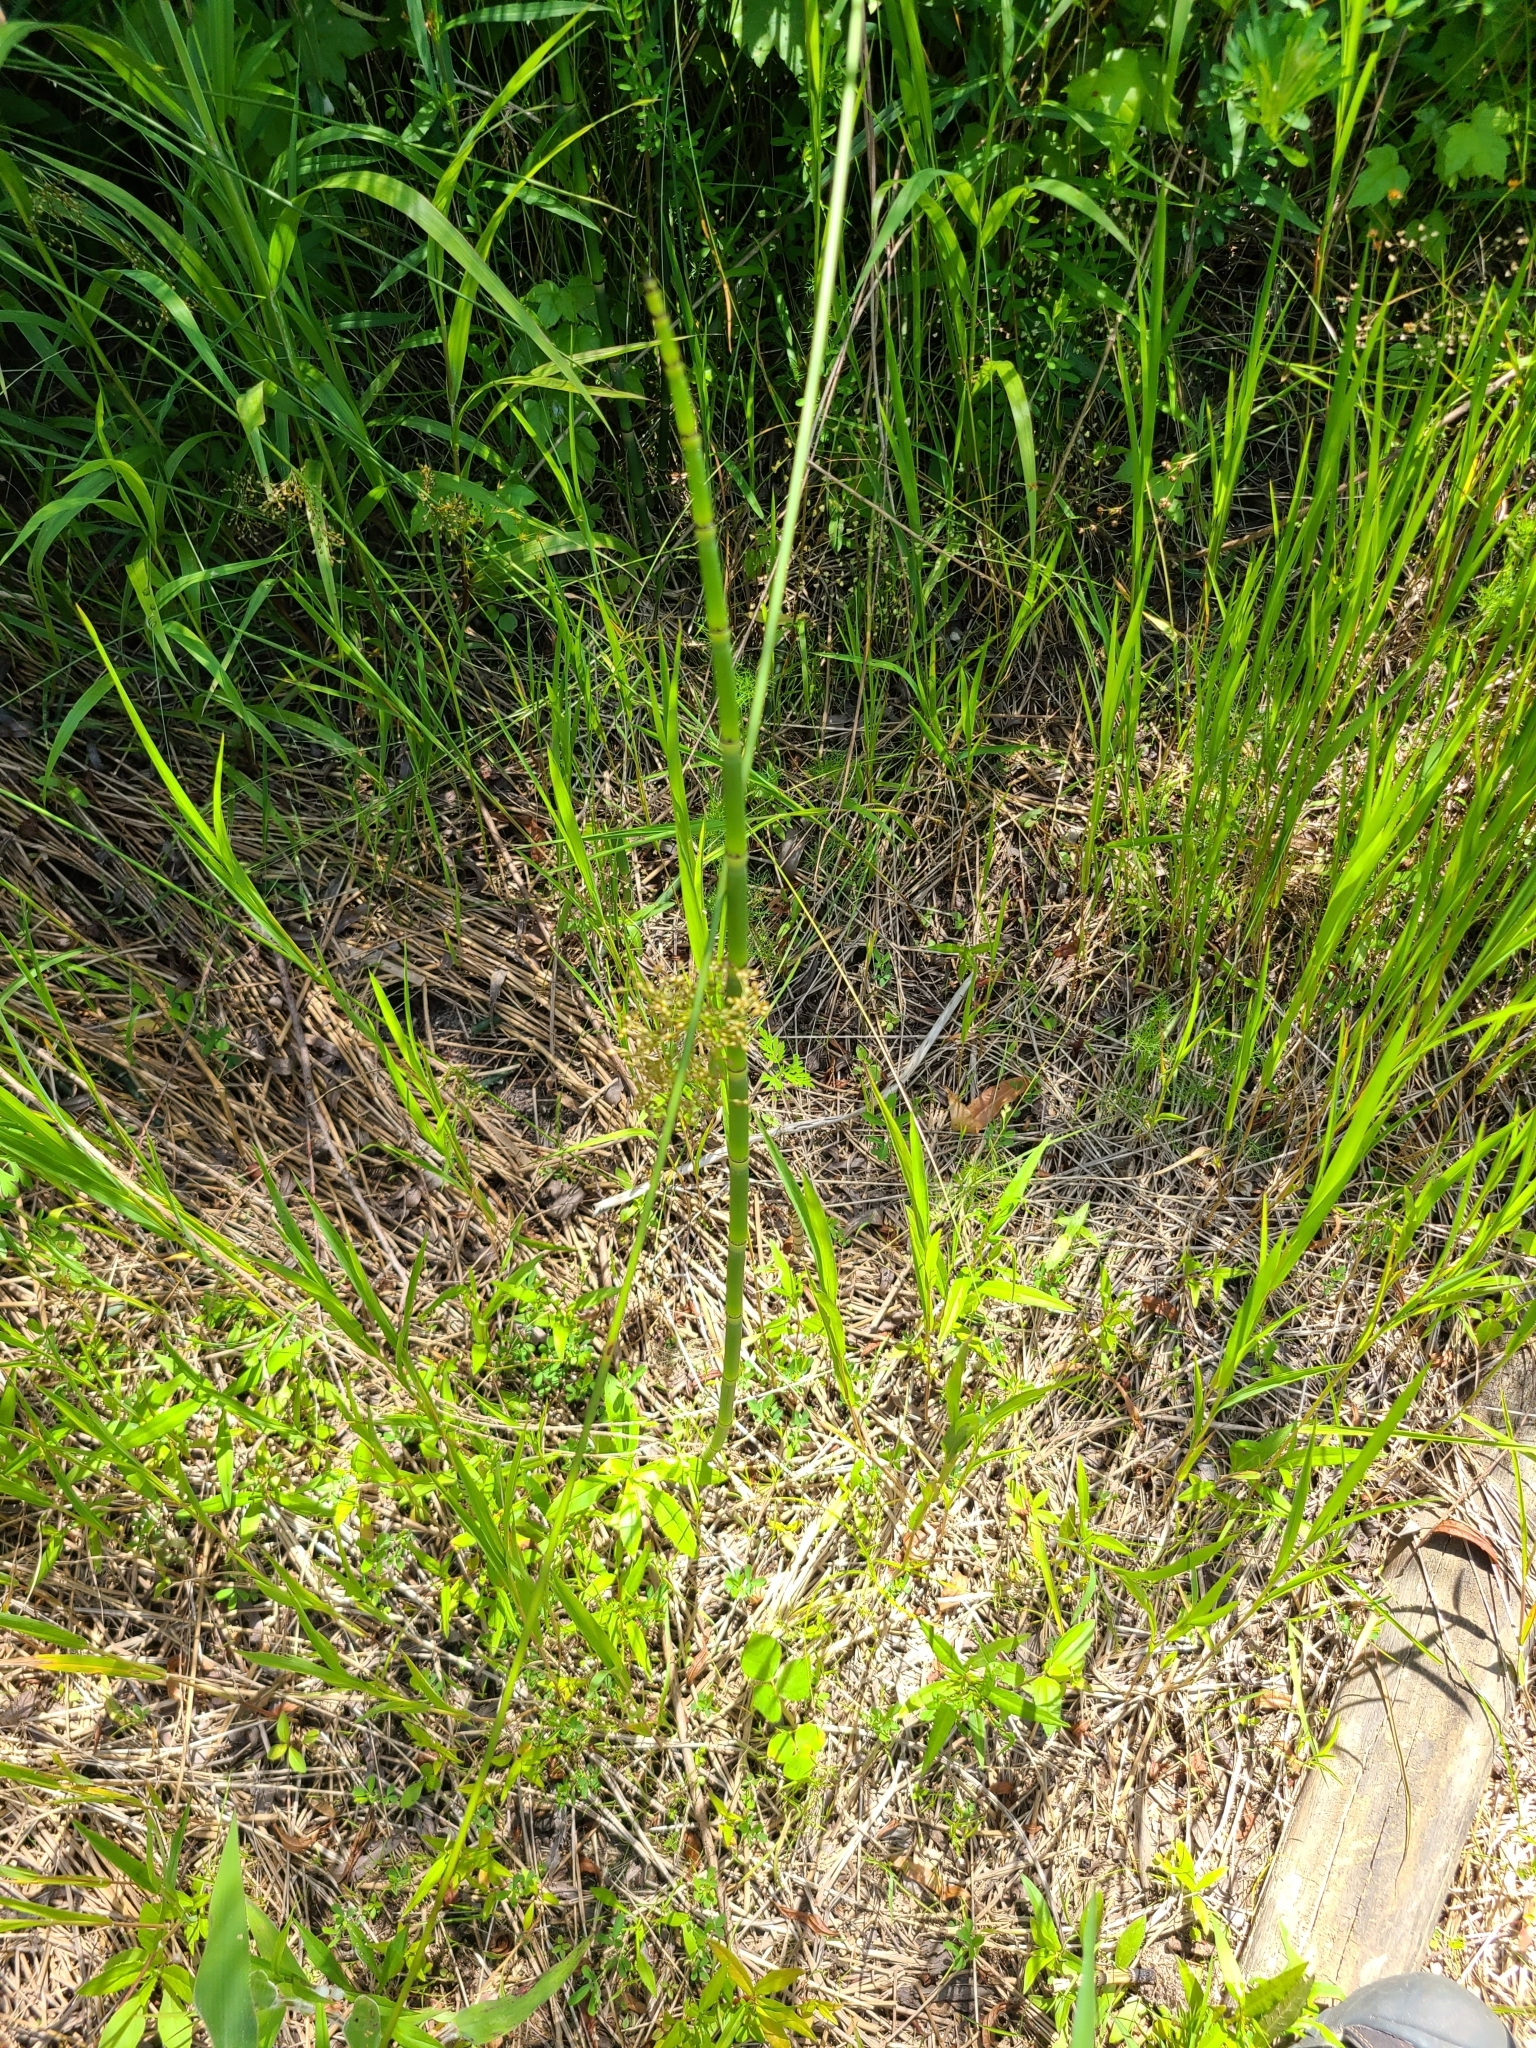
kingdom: Plantae
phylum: Tracheophyta
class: Polypodiopsida
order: Equisetales
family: Equisetaceae
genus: Equisetum
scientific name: Equisetum hyemale
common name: Rough horsetail
